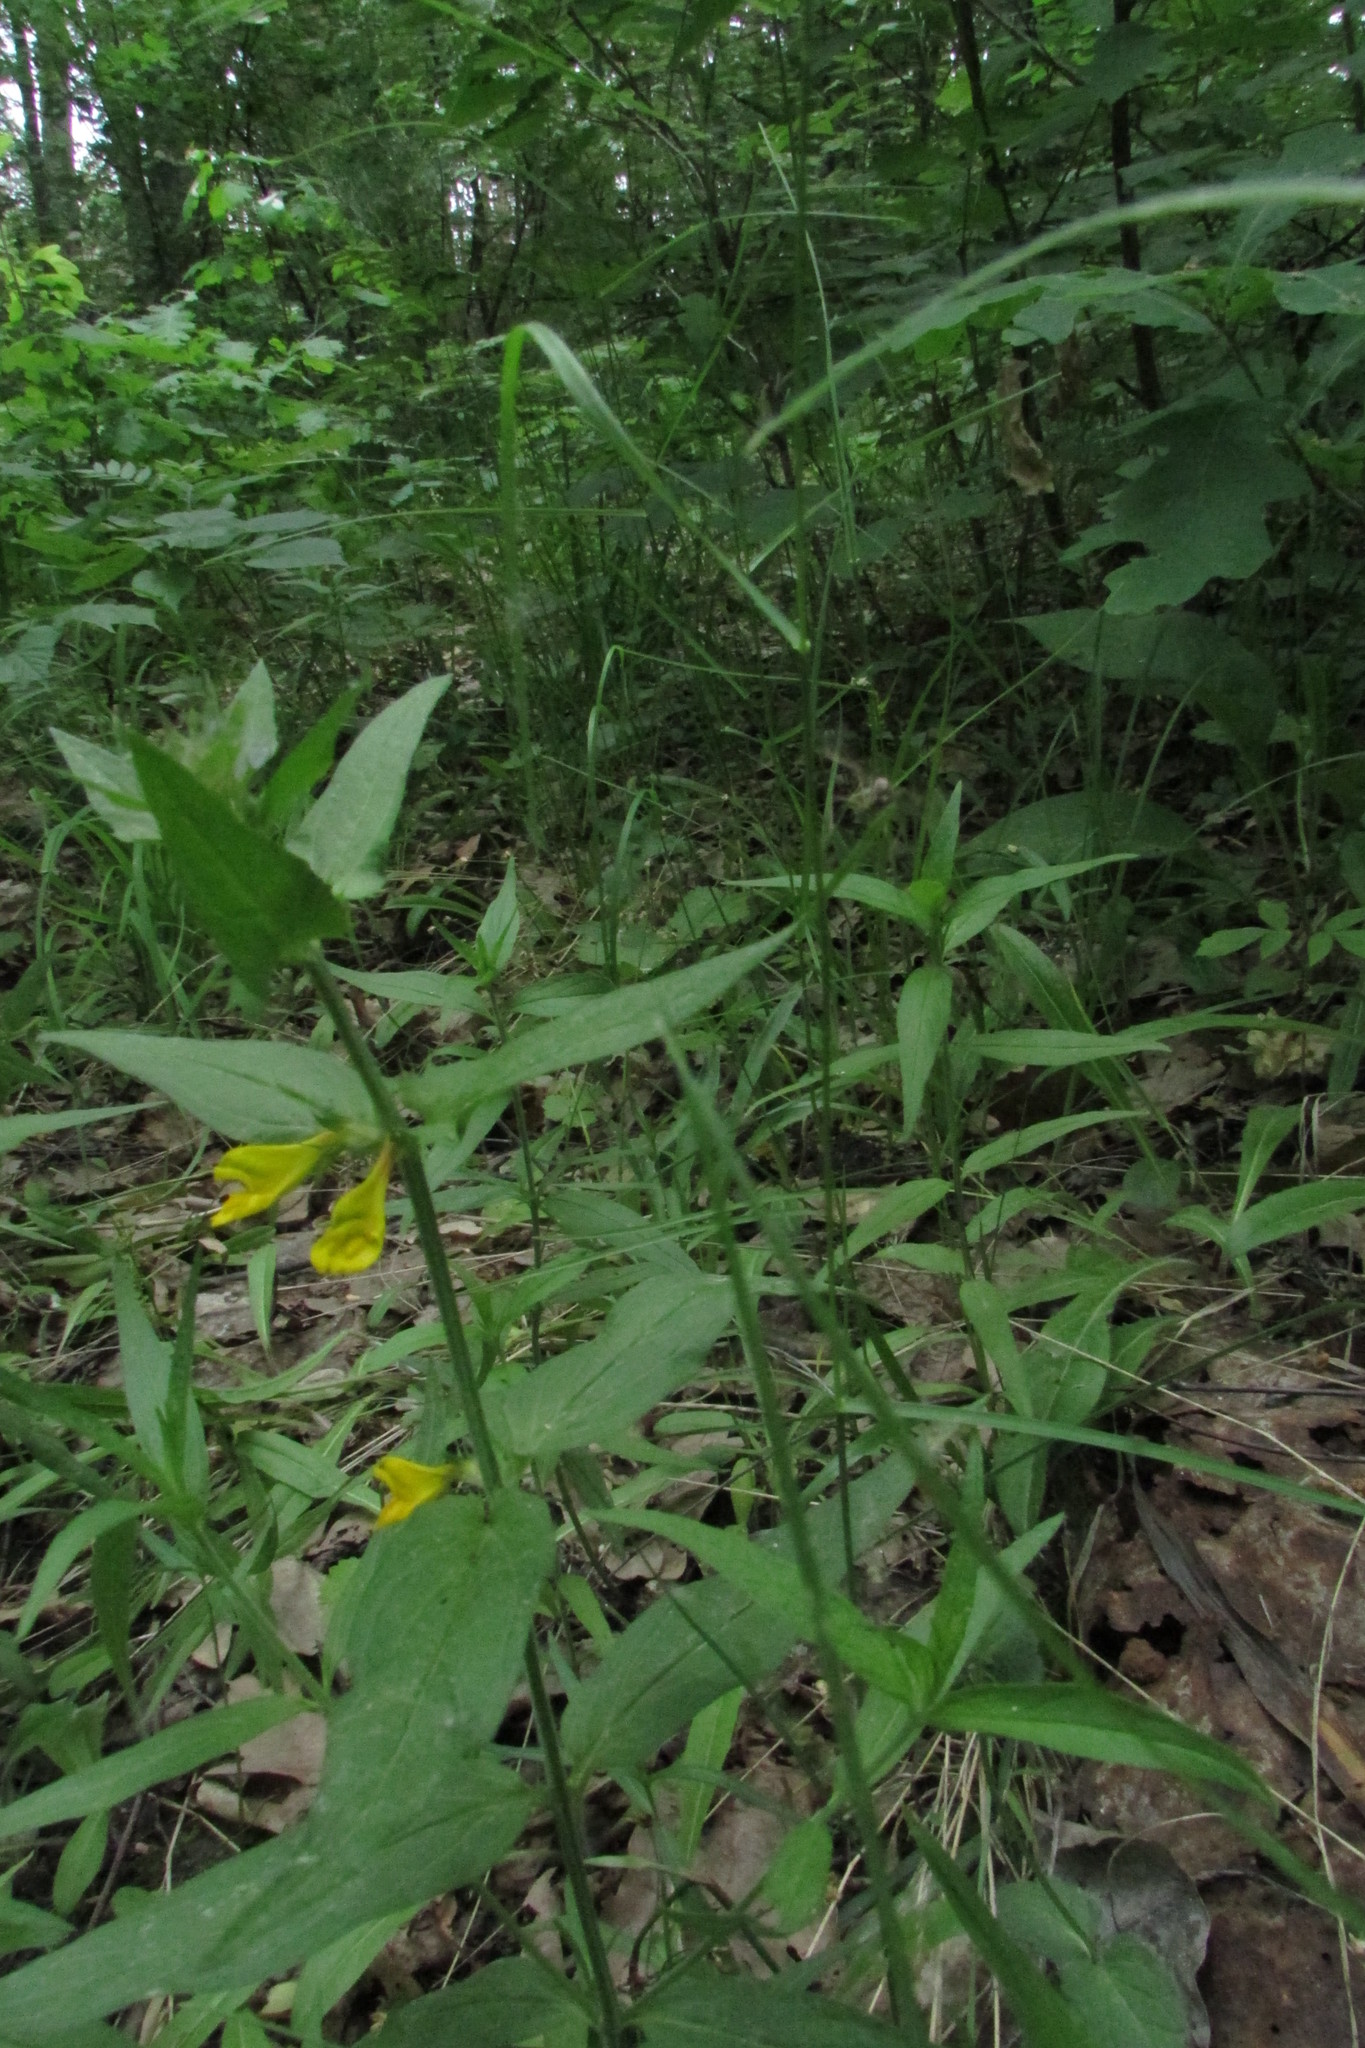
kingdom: Plantae
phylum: Tracheophyta
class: Magnoliopsida
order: Lamiales
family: Orobanchaceae
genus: Melampyrum
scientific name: Melampyrum nemorosum
